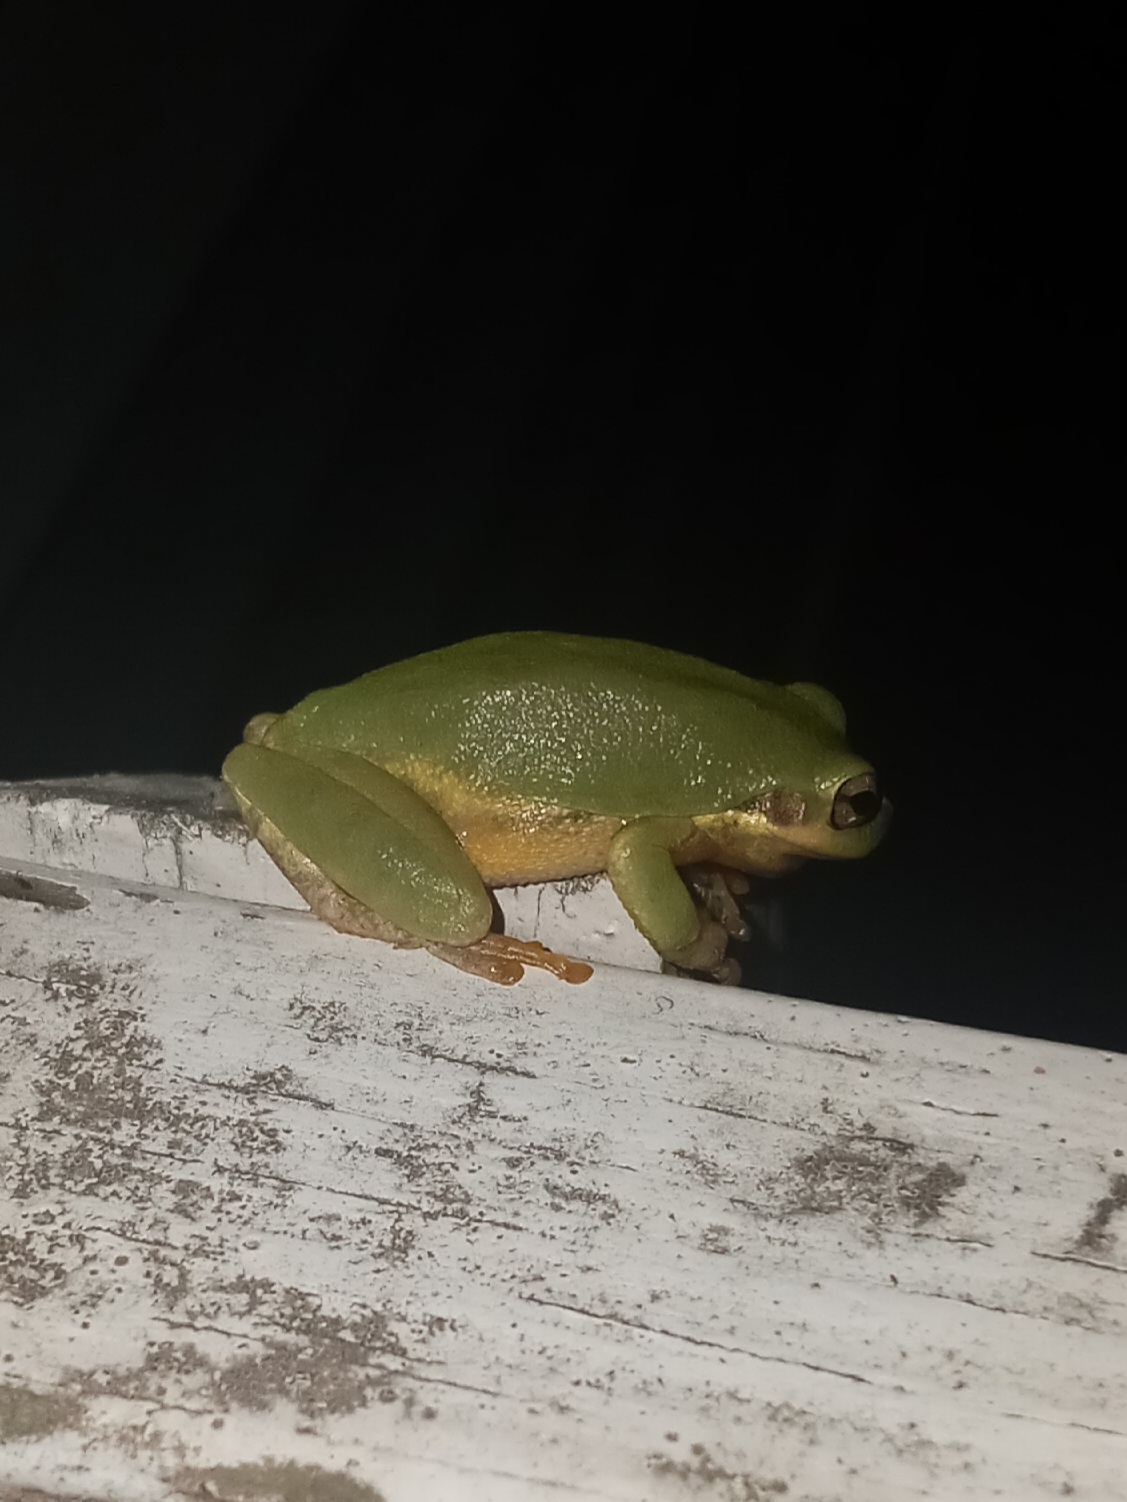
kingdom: Animalia
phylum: Chordata
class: Amphibia
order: Anura
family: Hylidae
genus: Dryophytes
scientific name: Dryophytes squirellus
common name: Squirrel treefrog
